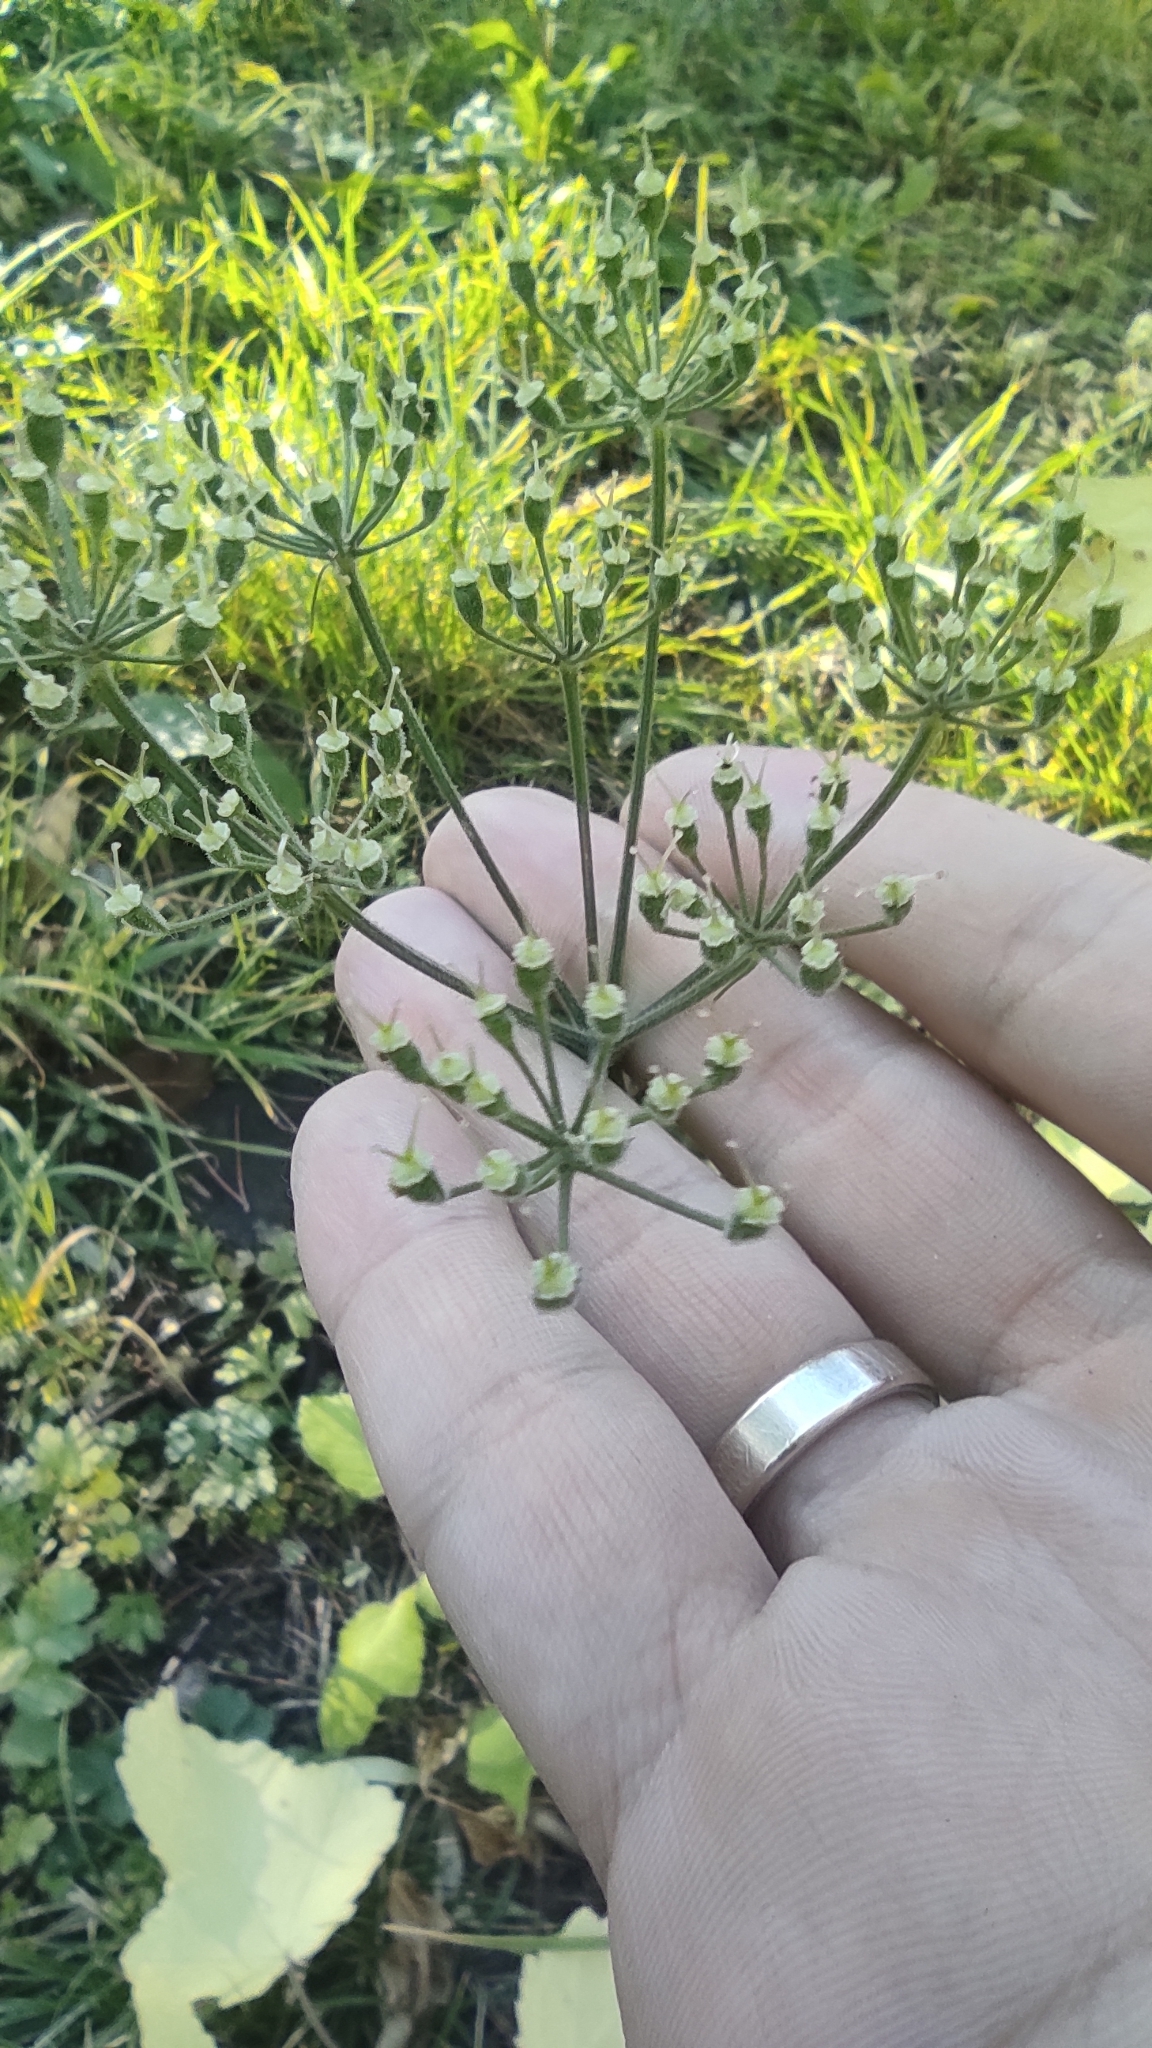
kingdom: Plantae
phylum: Tracheophyta
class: Magnoliopsida
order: Apiales
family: Apiaceae
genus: Heracleum
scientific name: Heracleum sphondylium
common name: Hogweed
